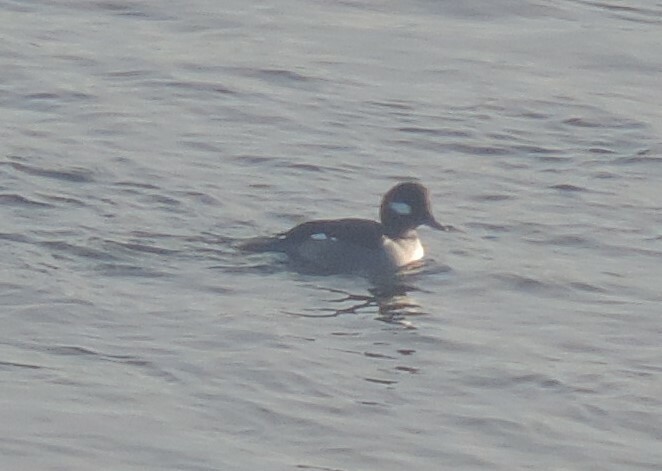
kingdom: Animalia
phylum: Chordata
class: Aves
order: Anseriformes
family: Anatidae
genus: Bucephala
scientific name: Bucephala albeola
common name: Bufflehead
